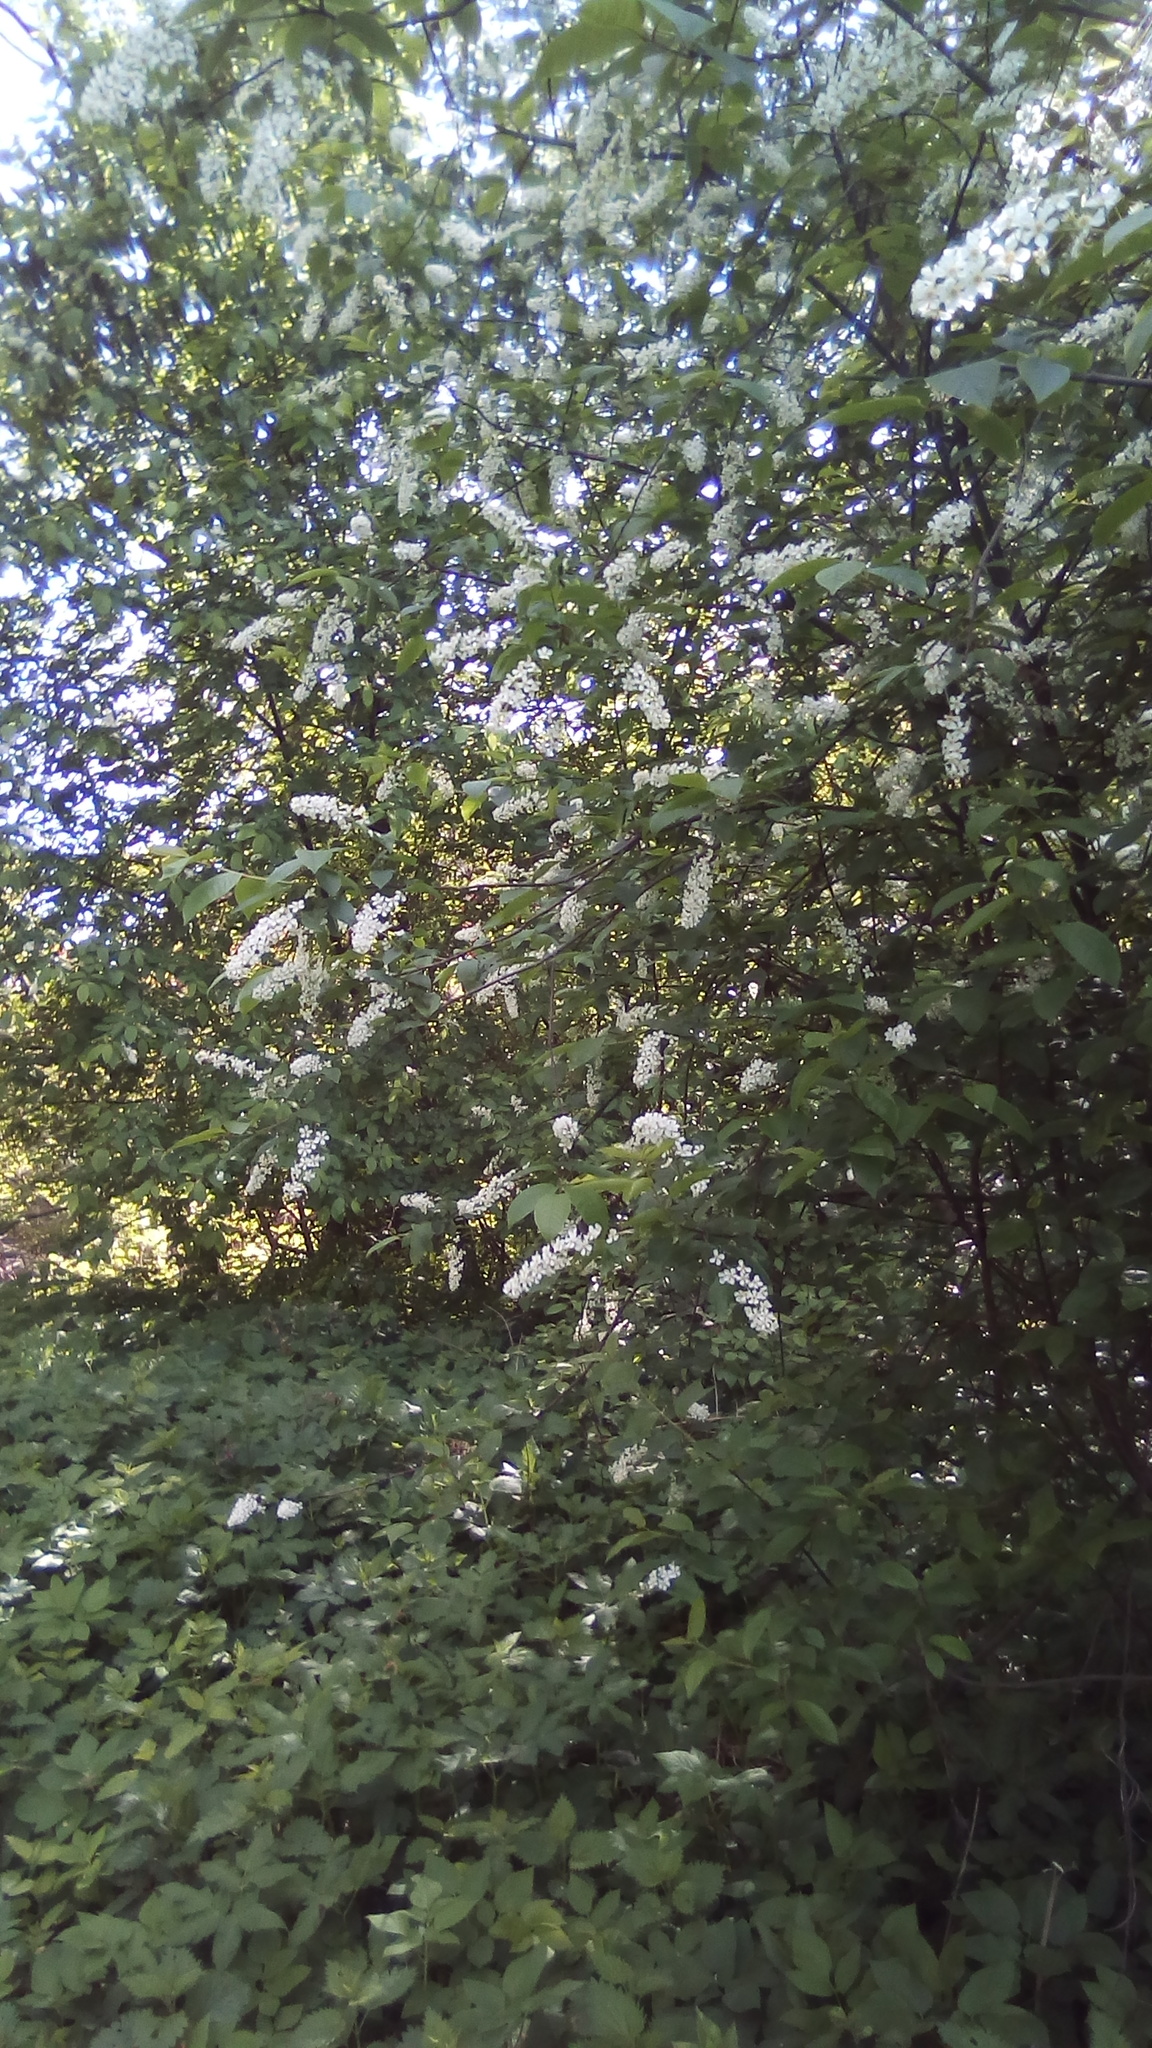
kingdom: Plantae
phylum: Tracheophyta
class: Magnoliopsida
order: Rosales
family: Rosaceae
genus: Prunus
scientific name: Prunus padus
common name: Bird cherry
